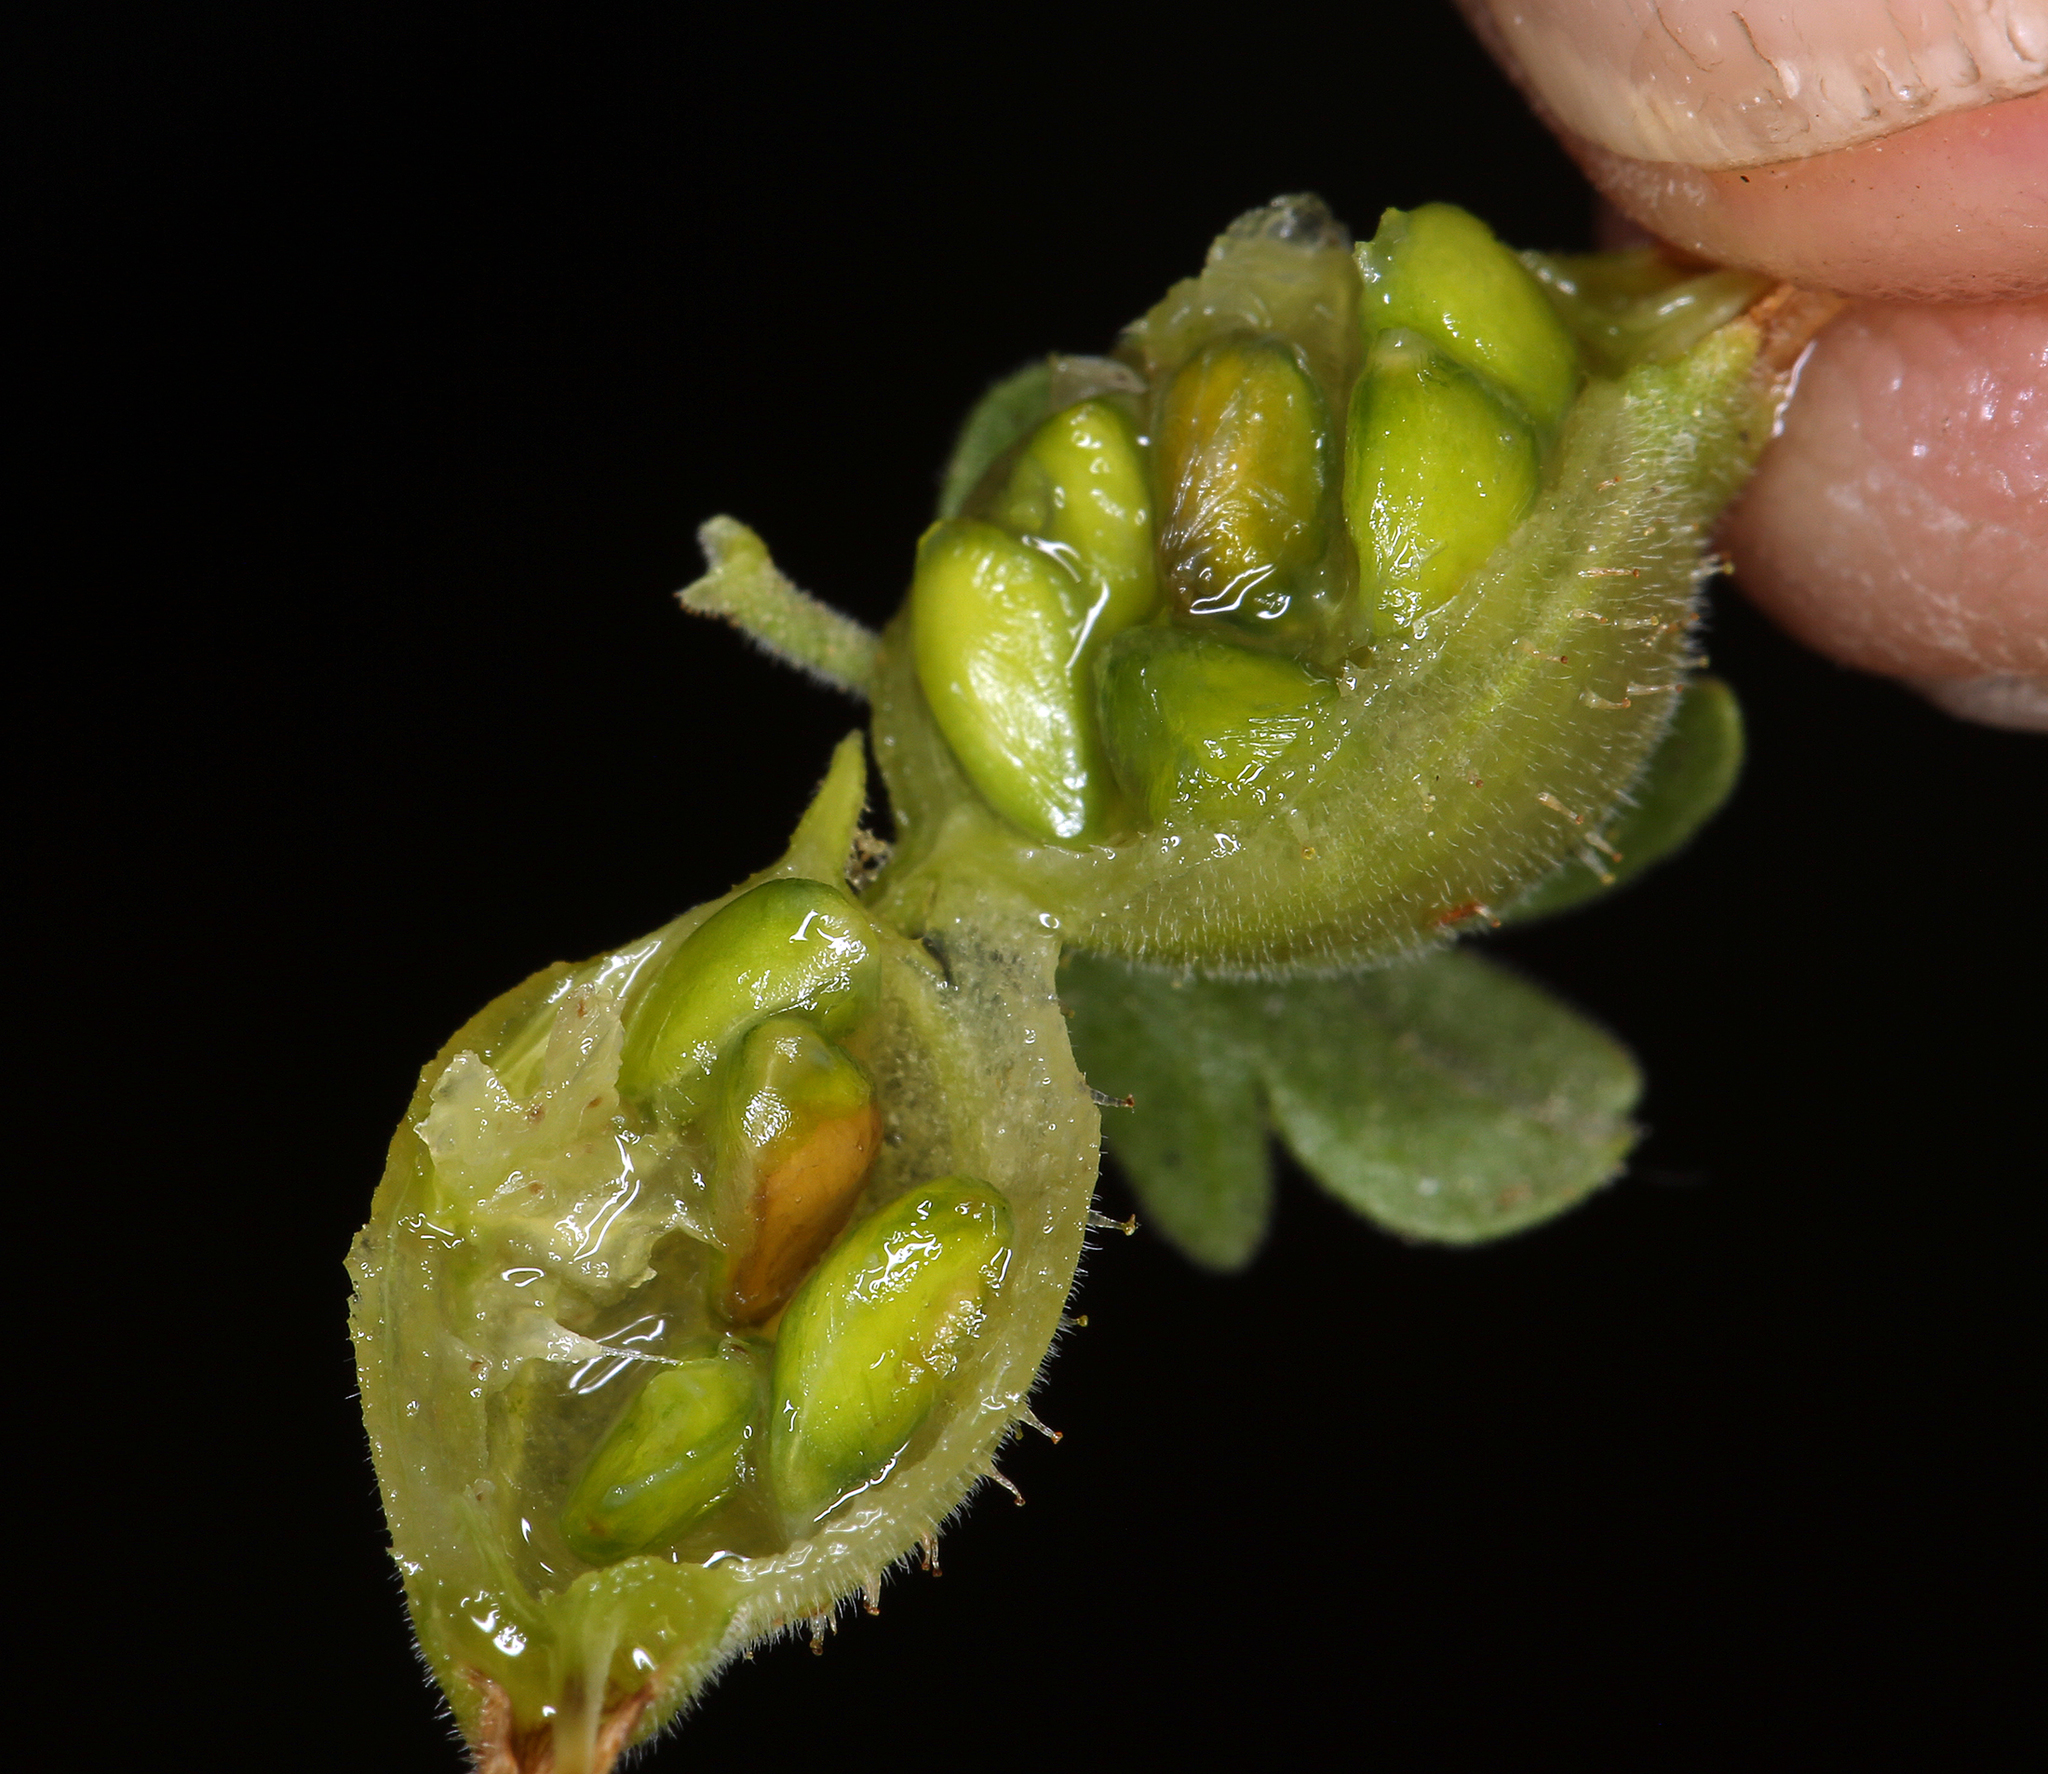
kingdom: Plantae
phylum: Tracheophyta
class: Magnoliopsida
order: Saxifragales
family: Grossulariaceae
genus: Ribes
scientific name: Ribes velutinum
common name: Desert gooseberry
